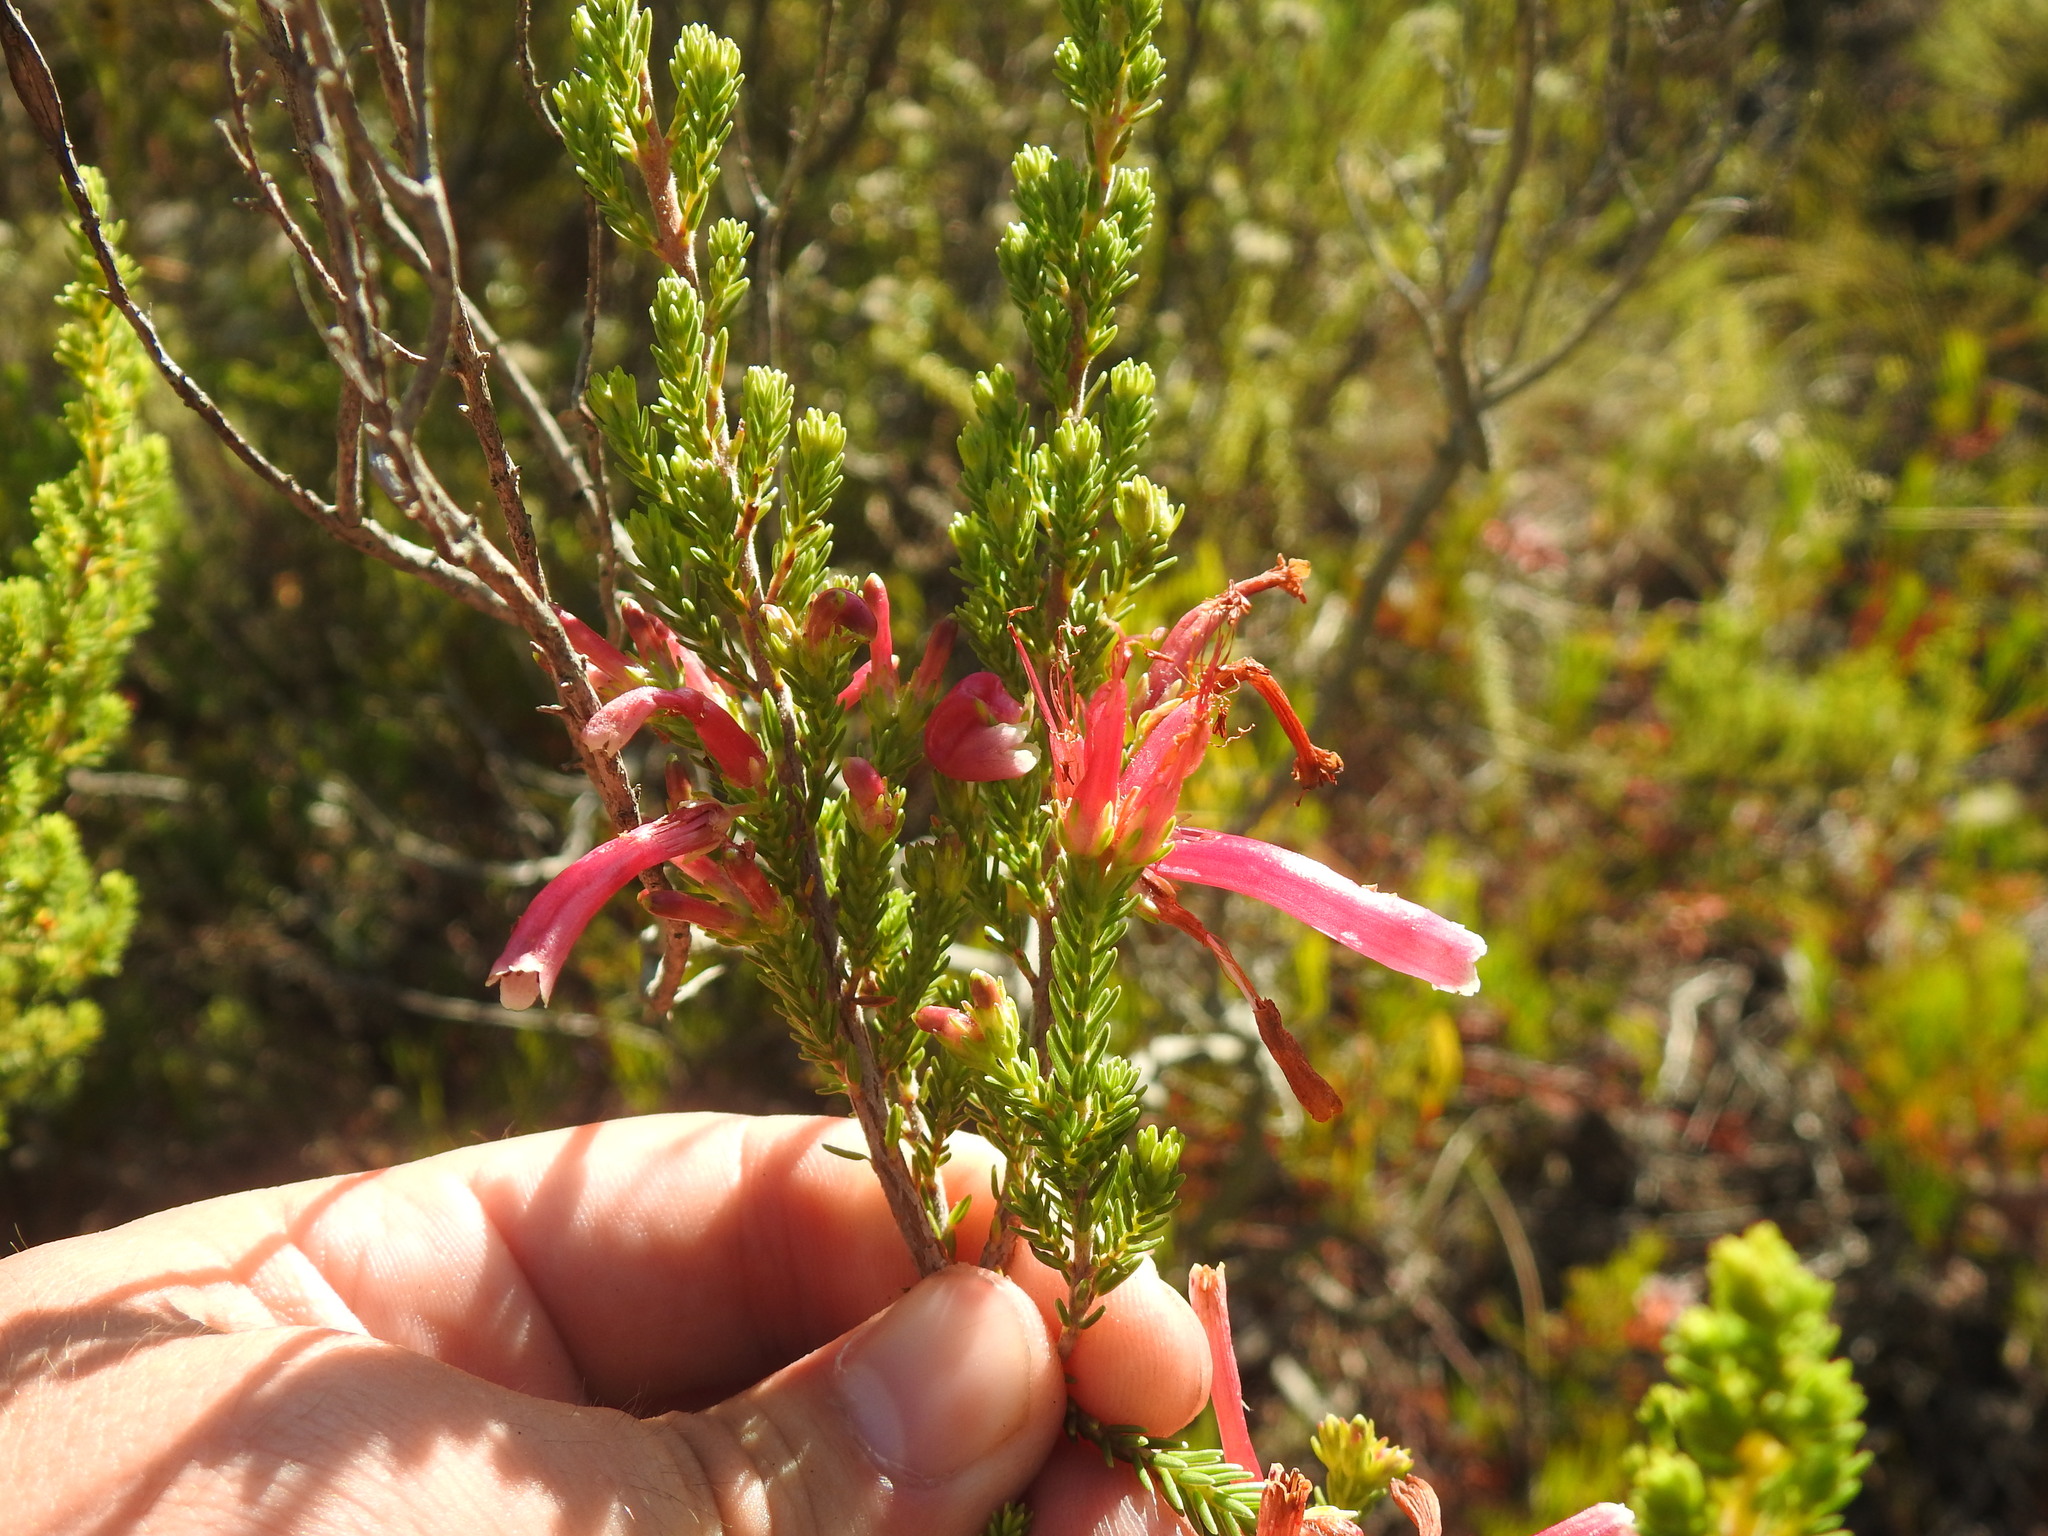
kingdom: Plantae
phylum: Tracheophyta
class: Magnoliopsida
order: Ericales
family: Ericaceae
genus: Erica
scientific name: Erica discolor
